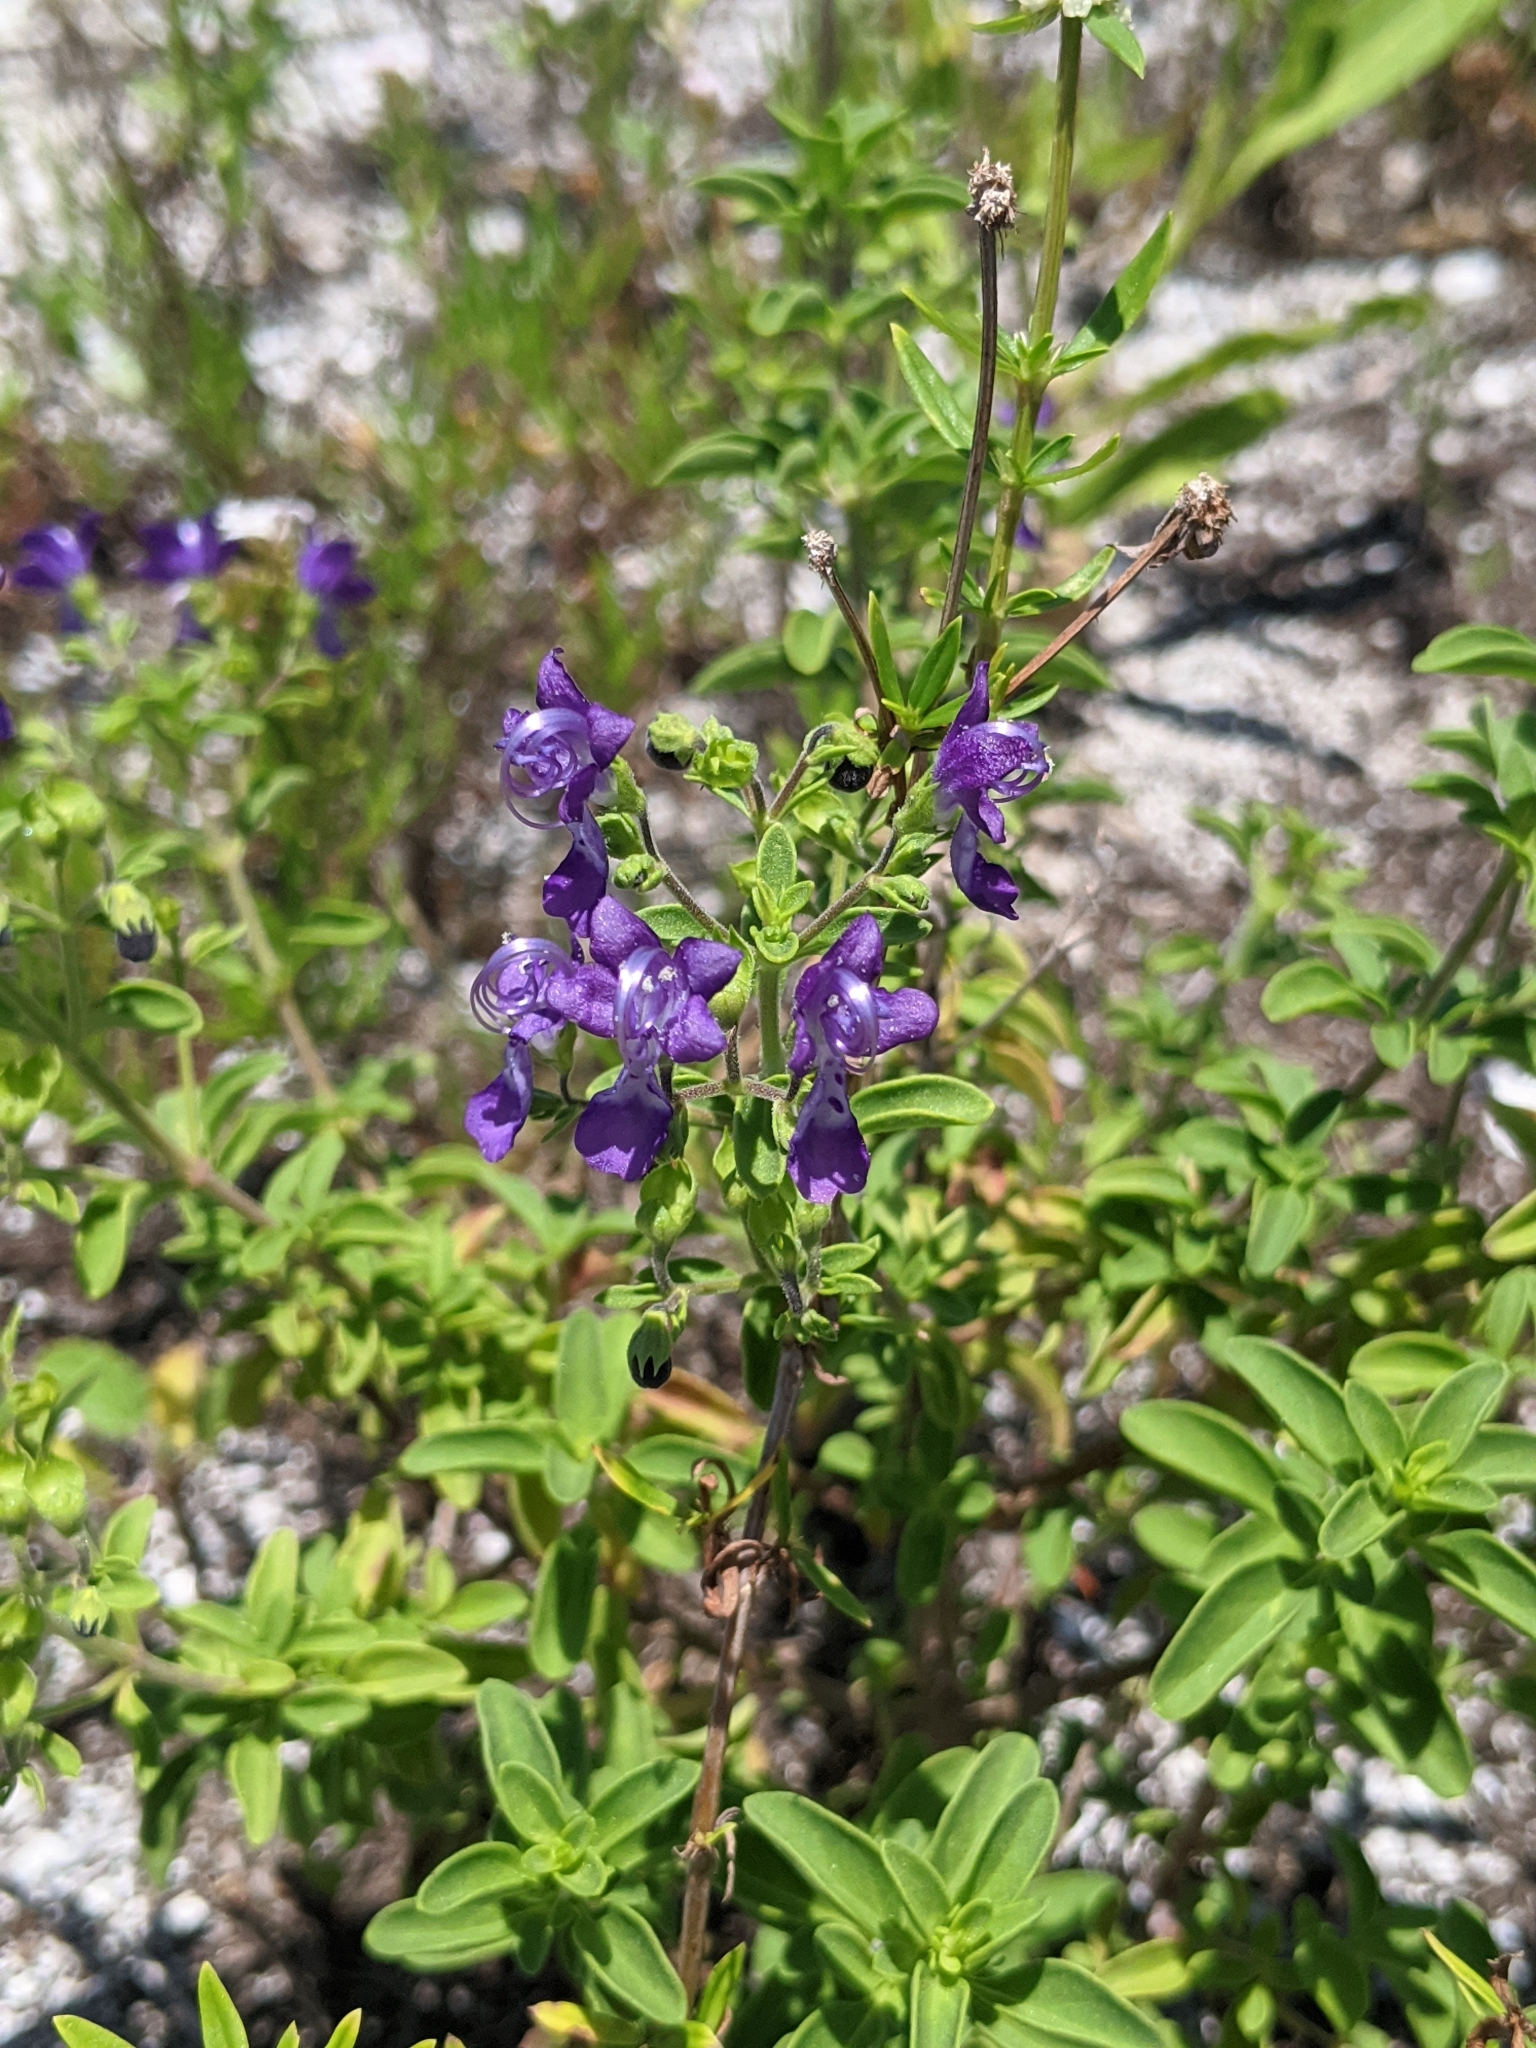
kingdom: Plantae
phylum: Tracheophyta
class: Magnoliopsida
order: Lamiales
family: Lamiaceae
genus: Trichostema
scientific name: Trichostema
